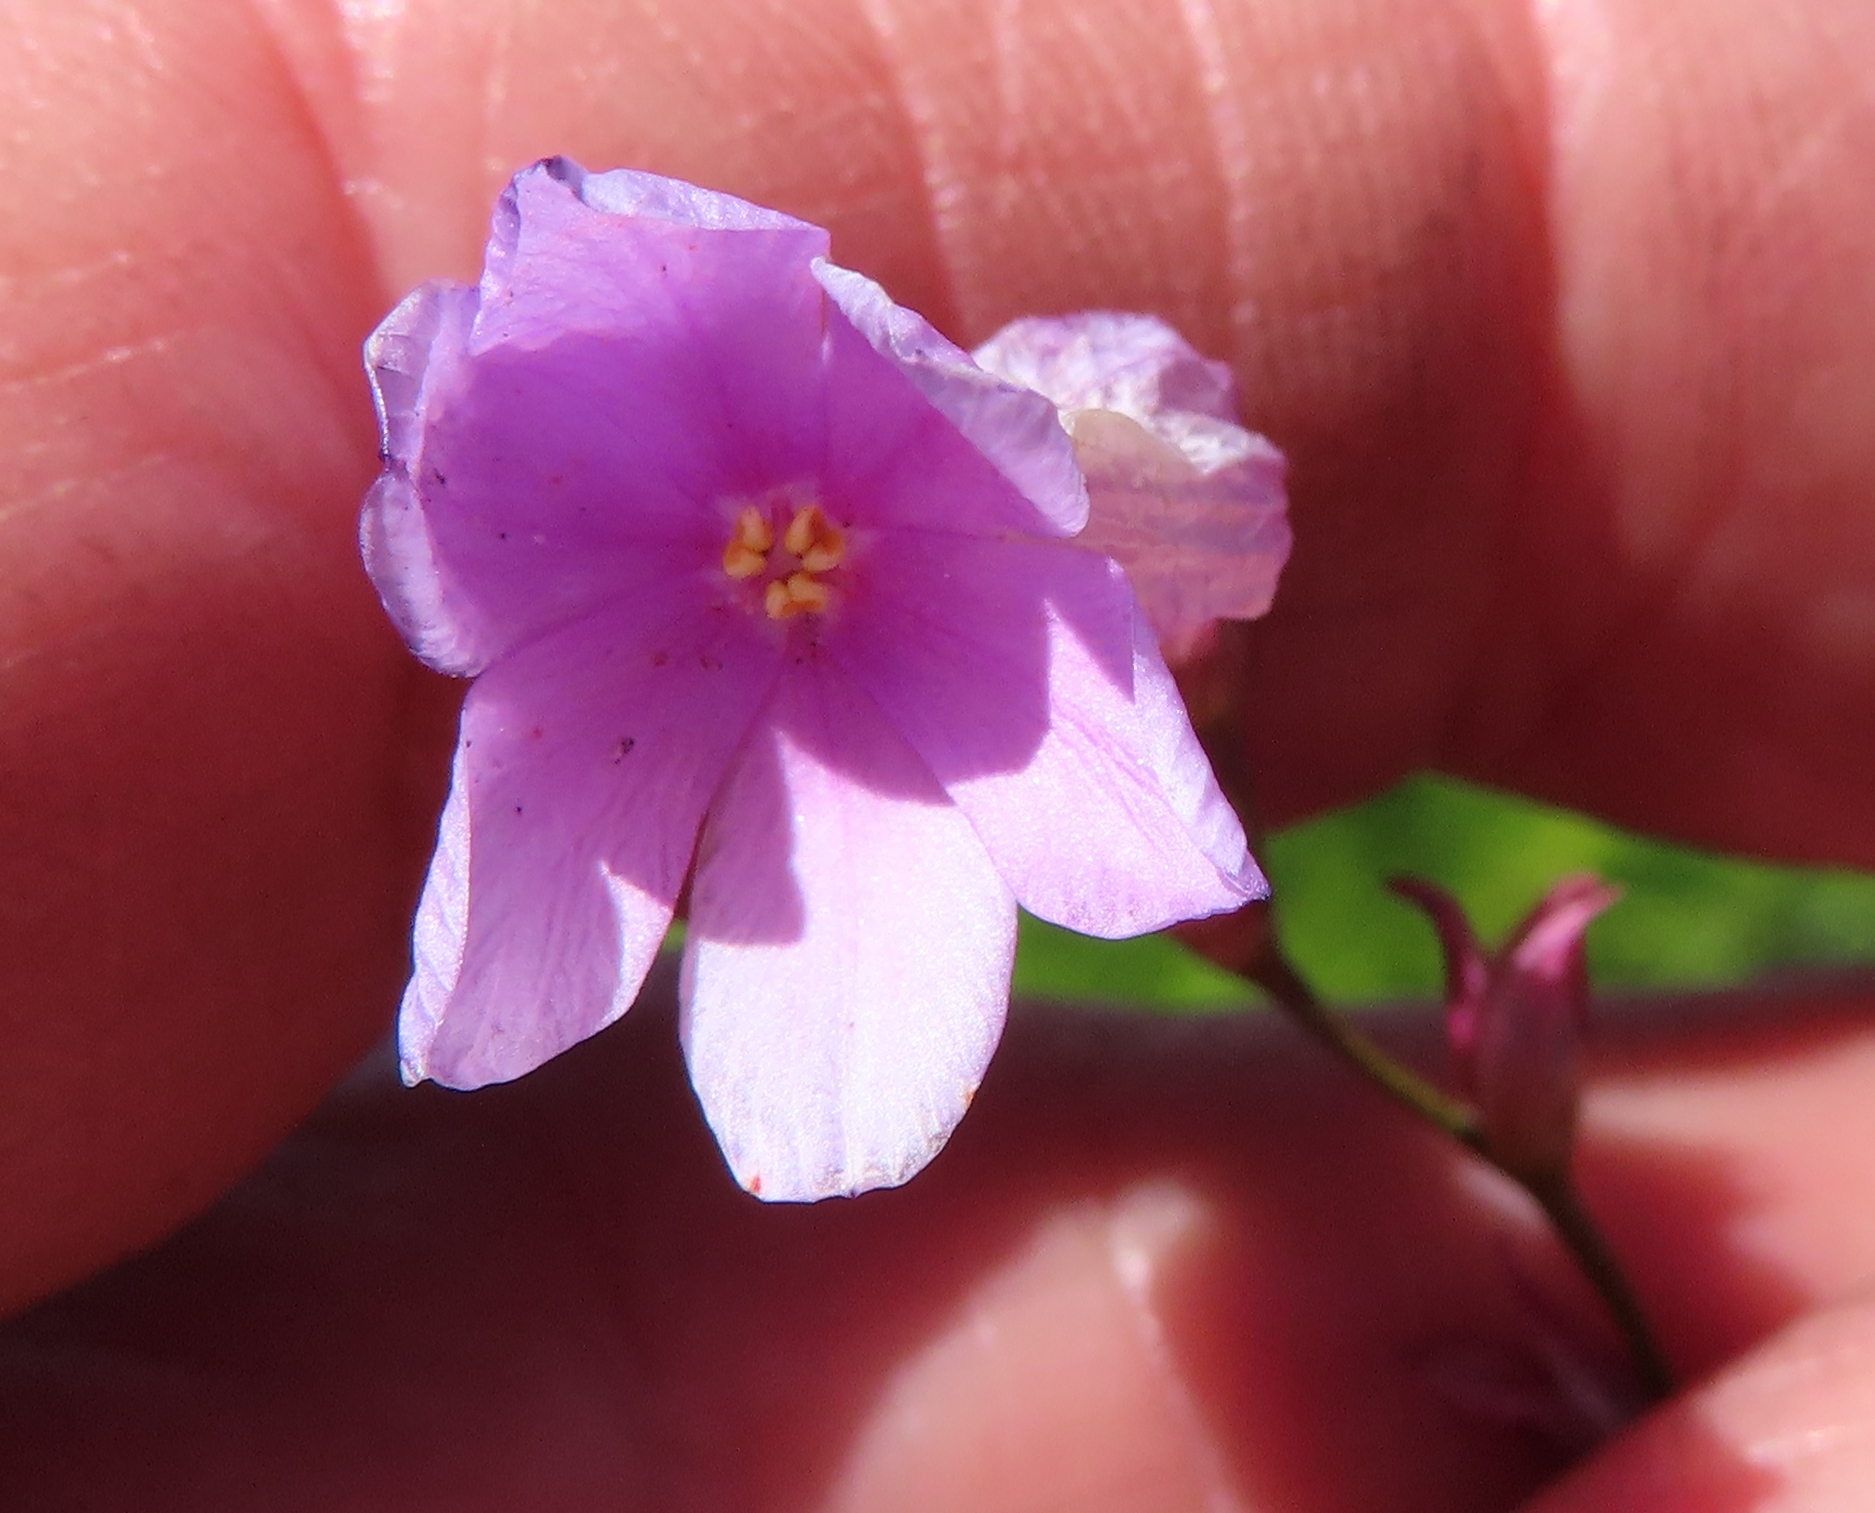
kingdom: Plantae
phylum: Tracheophyta
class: Liliopsida
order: Asparagales
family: Iridaceae
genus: Ixia
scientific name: Ixia flexuosa
